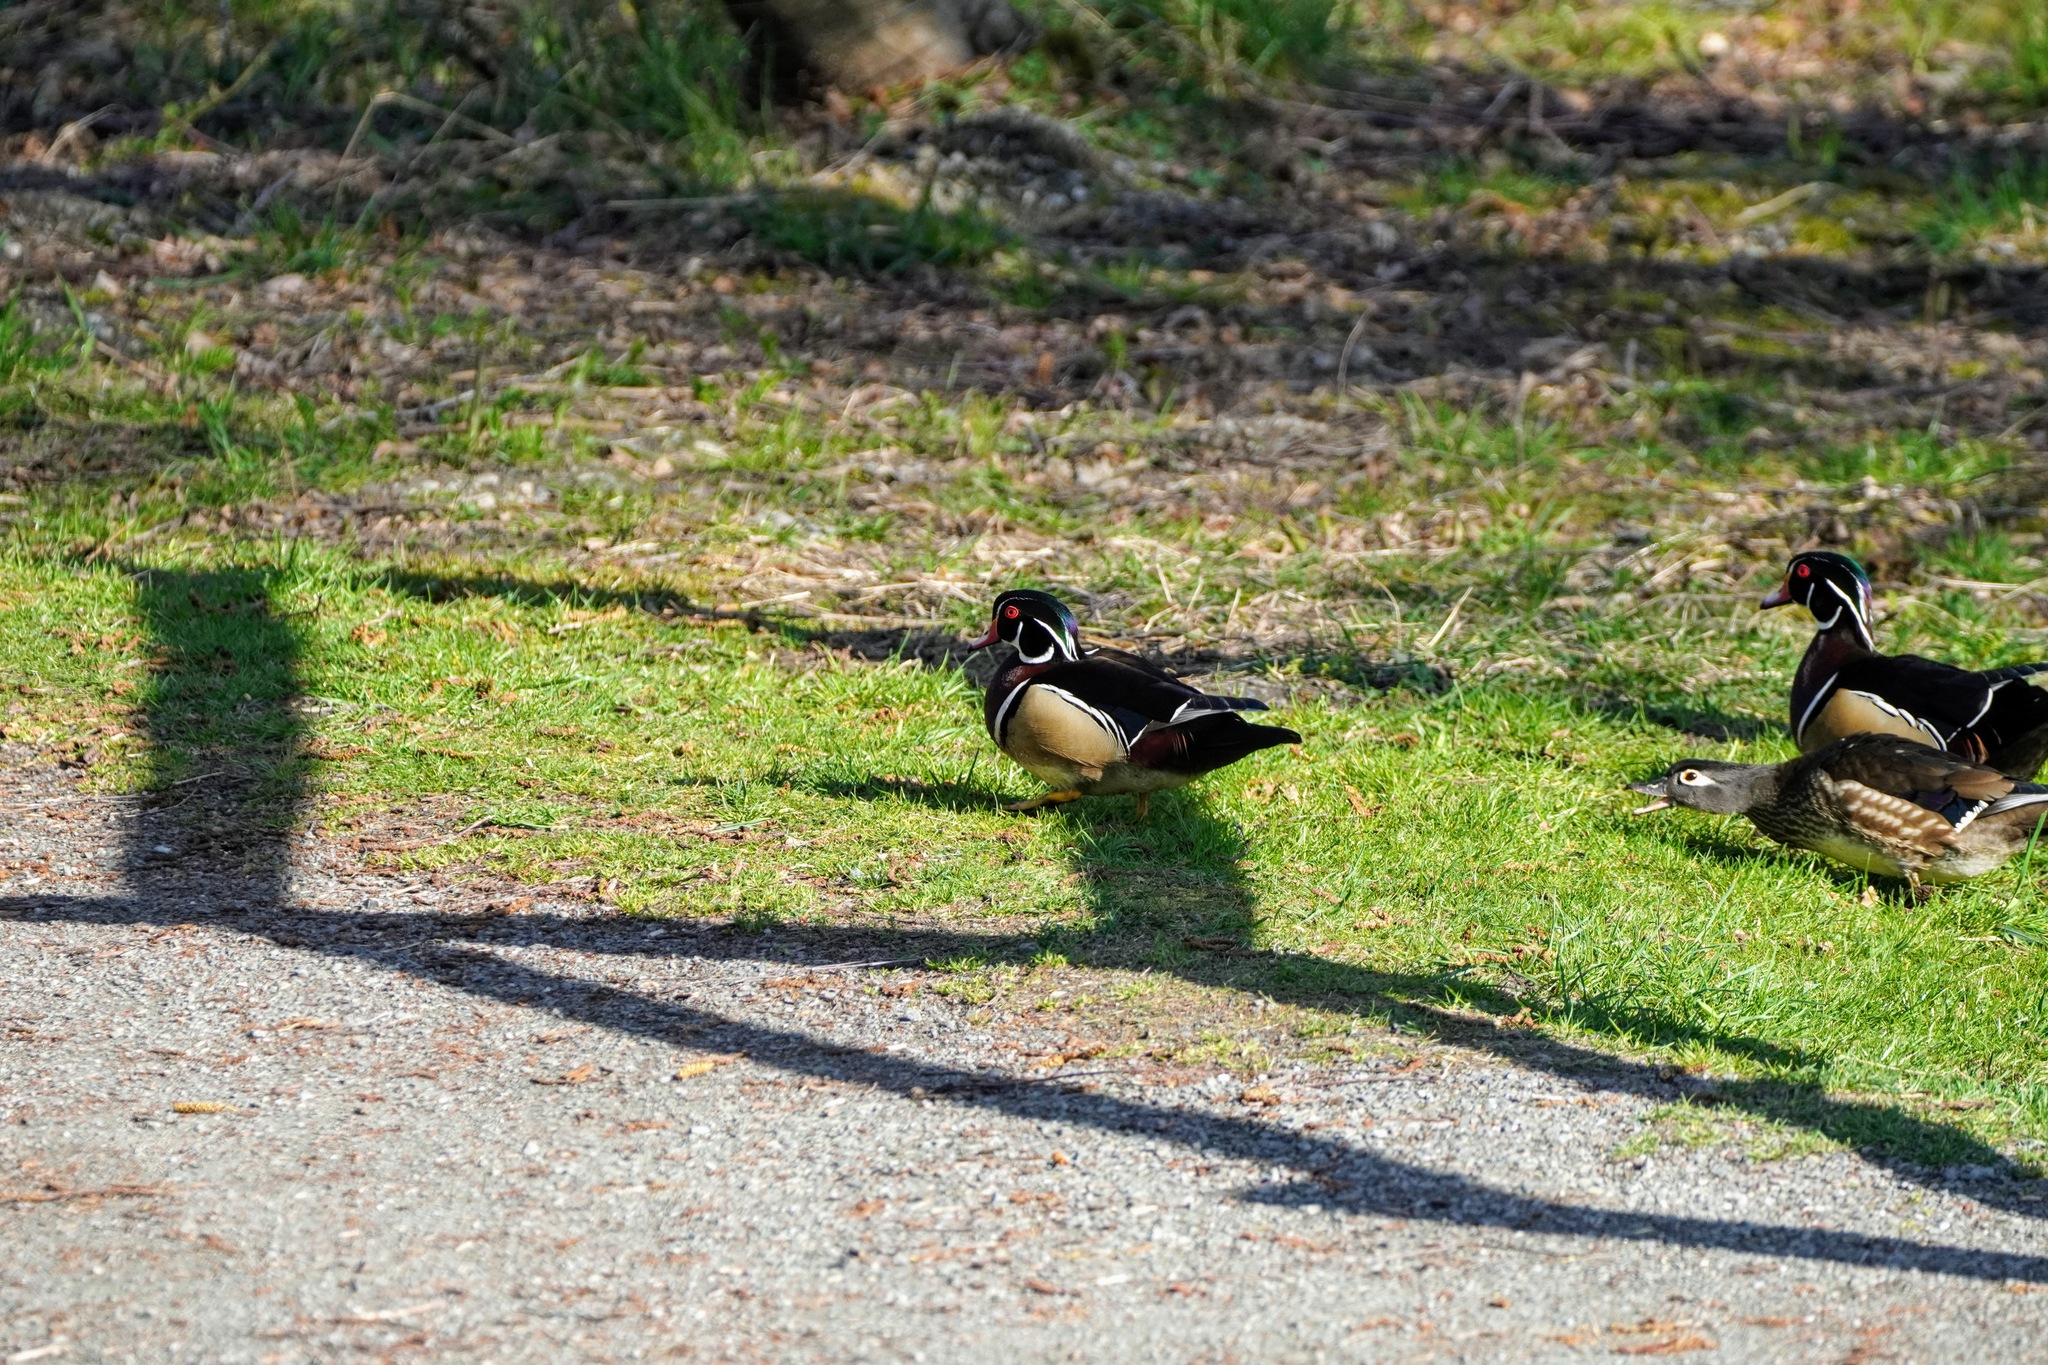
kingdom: Animalia
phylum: Chordata
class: Aves
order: Anseriformes
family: Anatidae
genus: Aix
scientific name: Aix sponsa
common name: Wood duck
